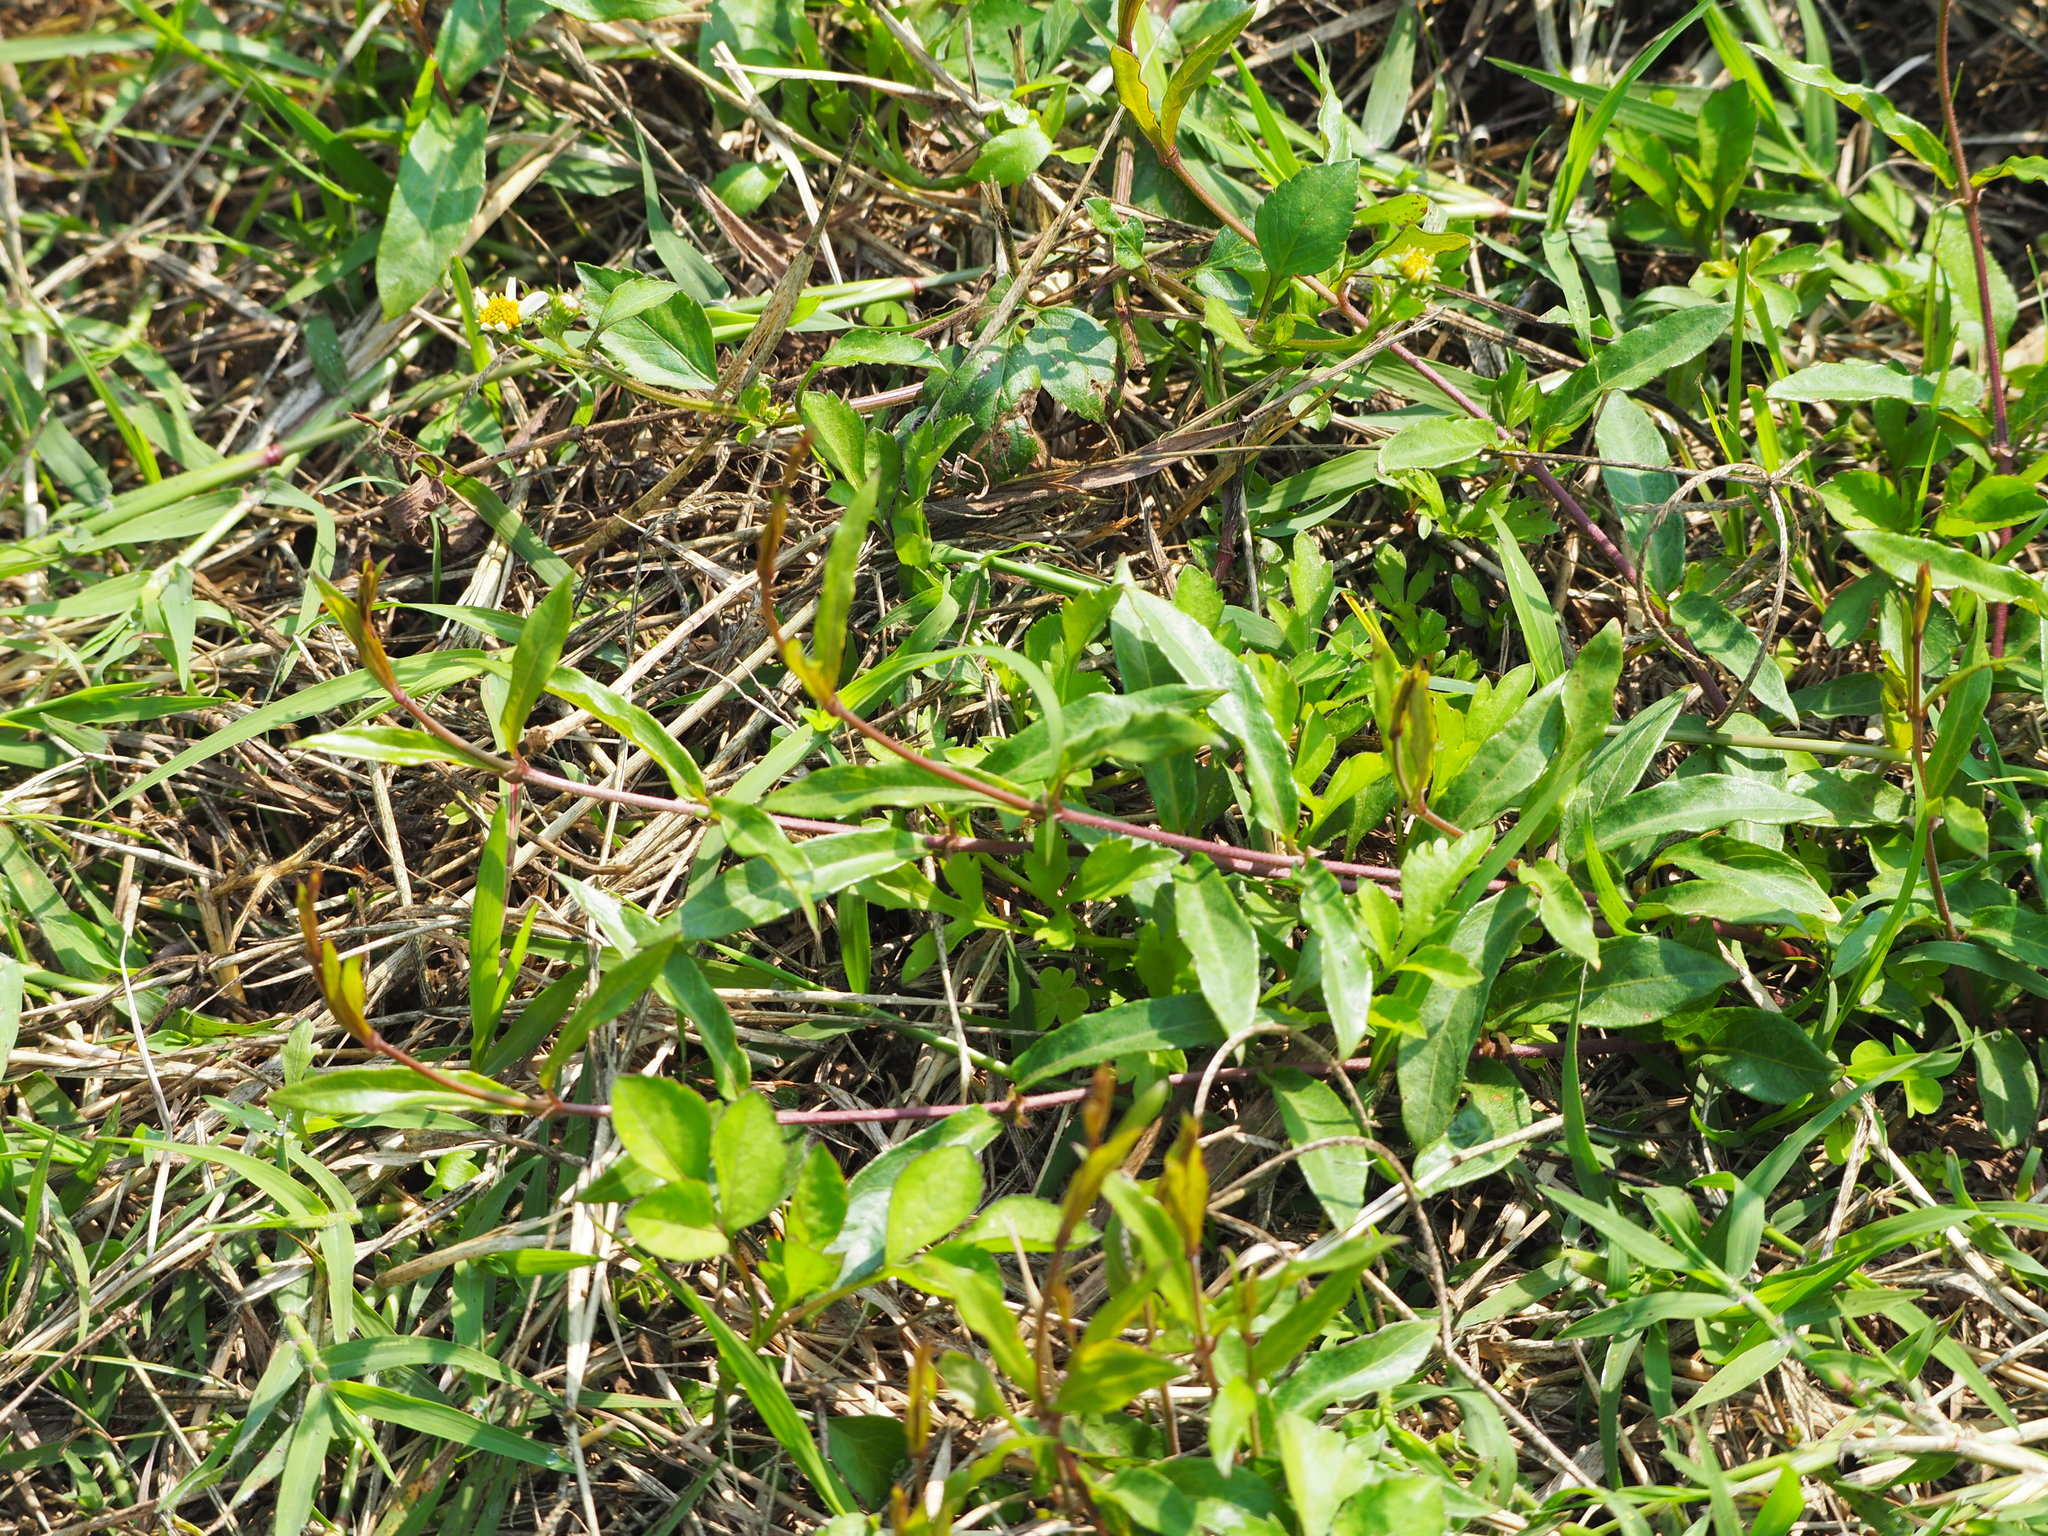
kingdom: Plantae
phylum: Tracheophyta
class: Magnoliopsida
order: Gentianales
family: Rubiaceae
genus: Paederia
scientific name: Paederia foetida
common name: Stinkvine
